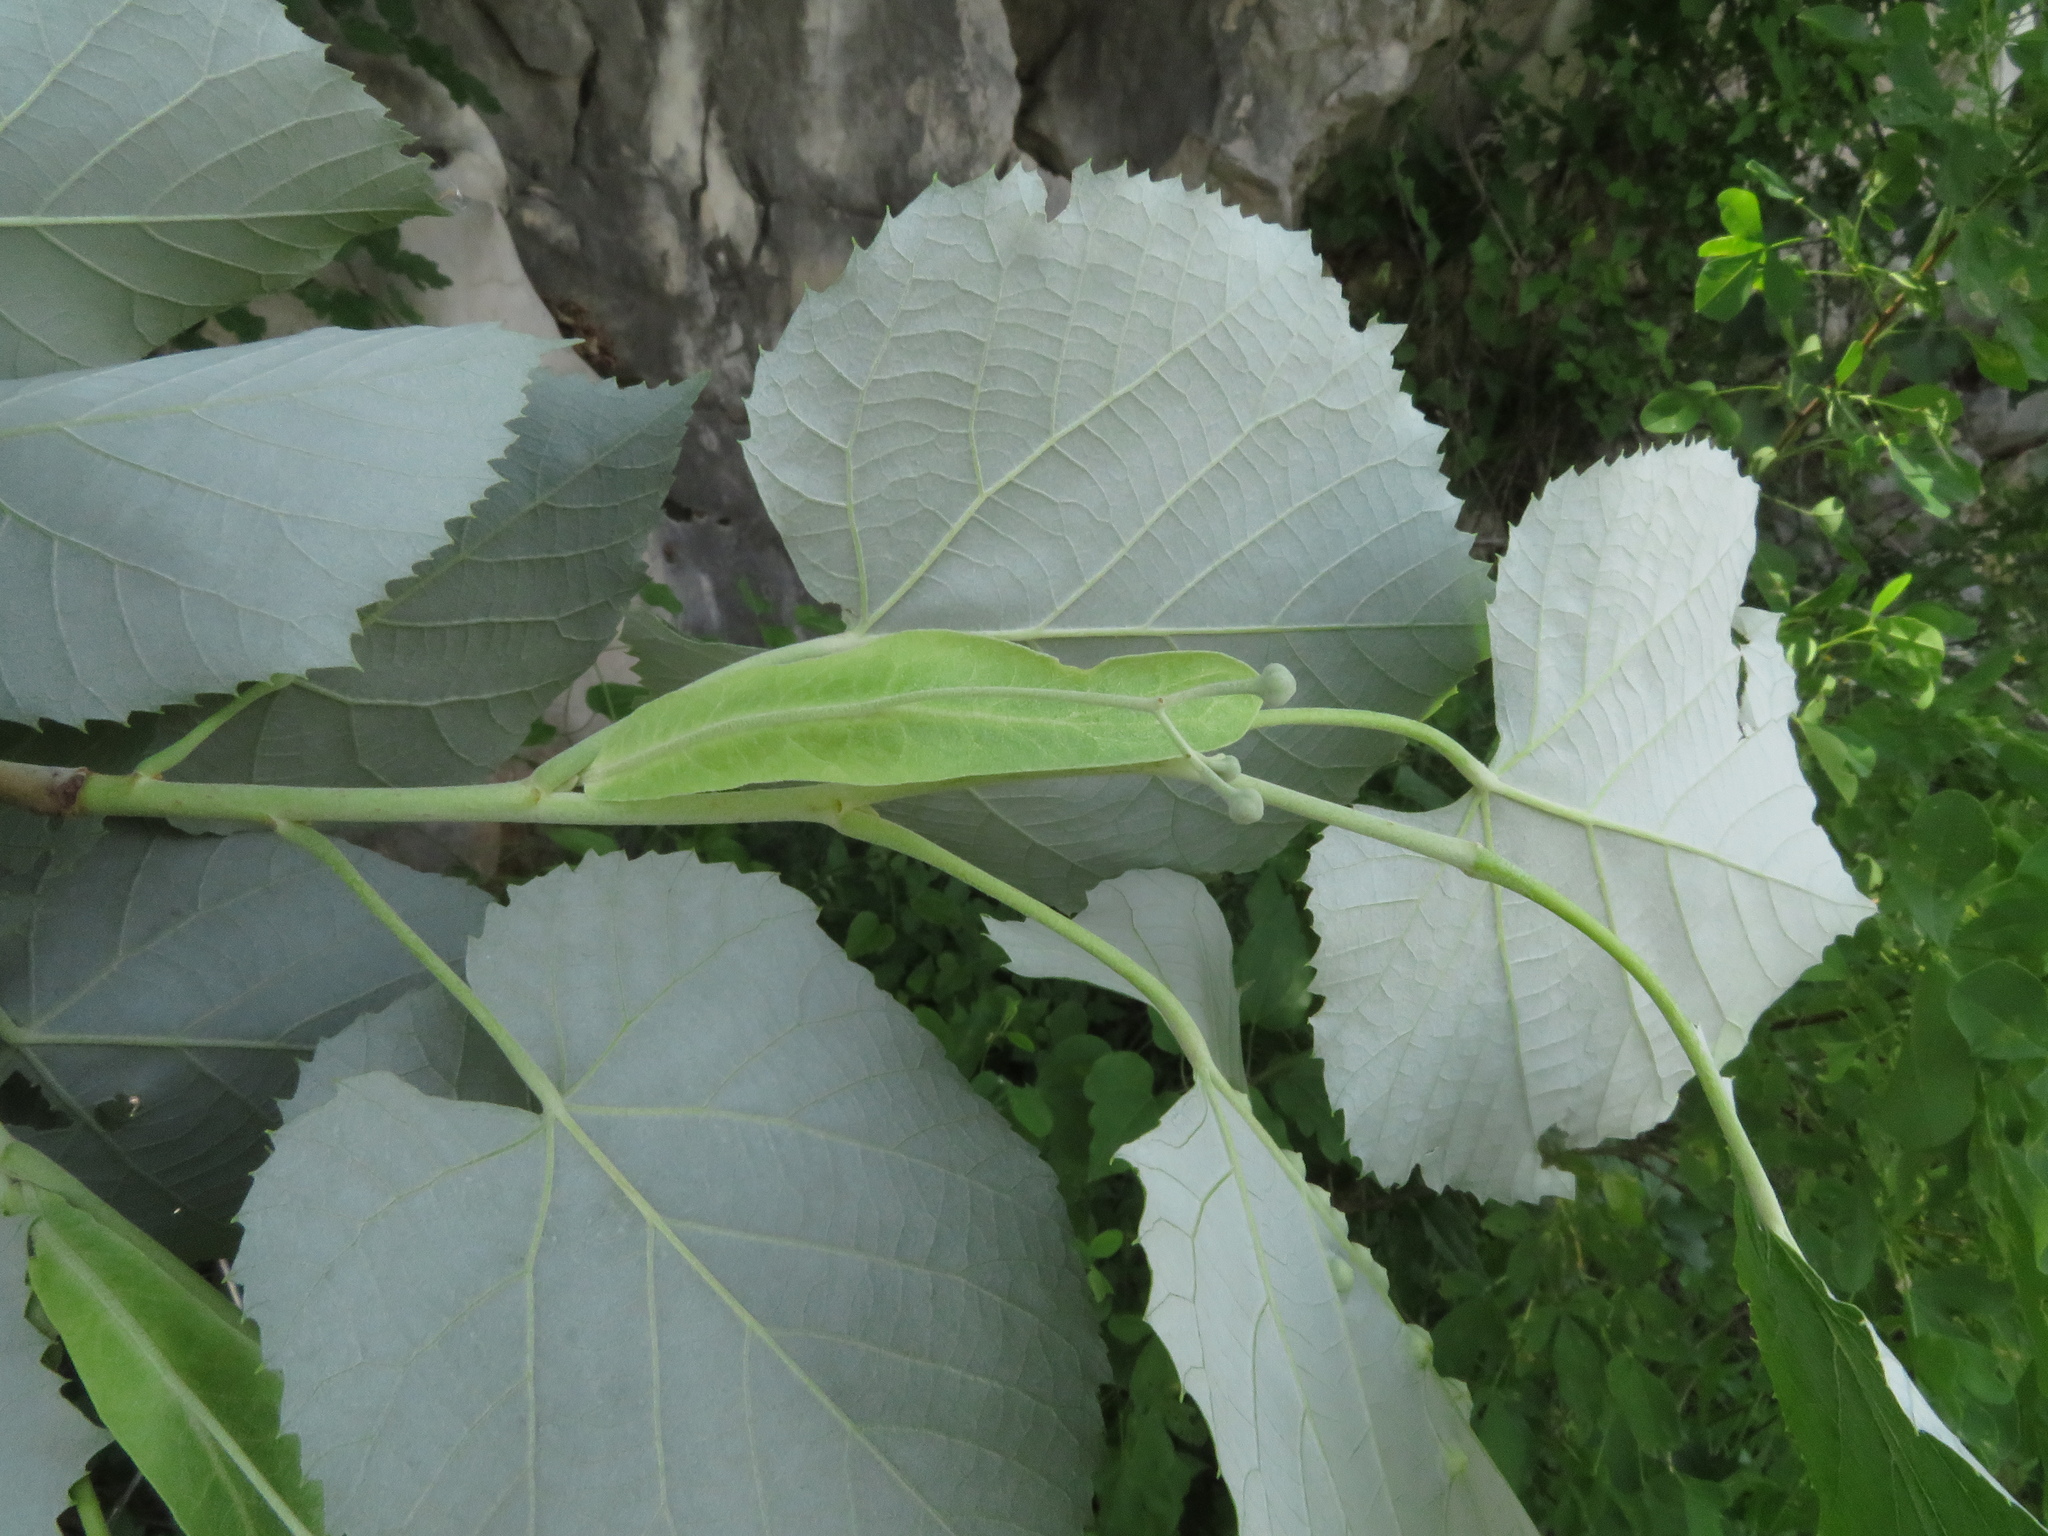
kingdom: Plantae
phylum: Tracheophyta
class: Magnoliopsida
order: Malvales
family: Malvaceae
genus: Tilia
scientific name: Tilia tomentosa
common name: Silver lime
